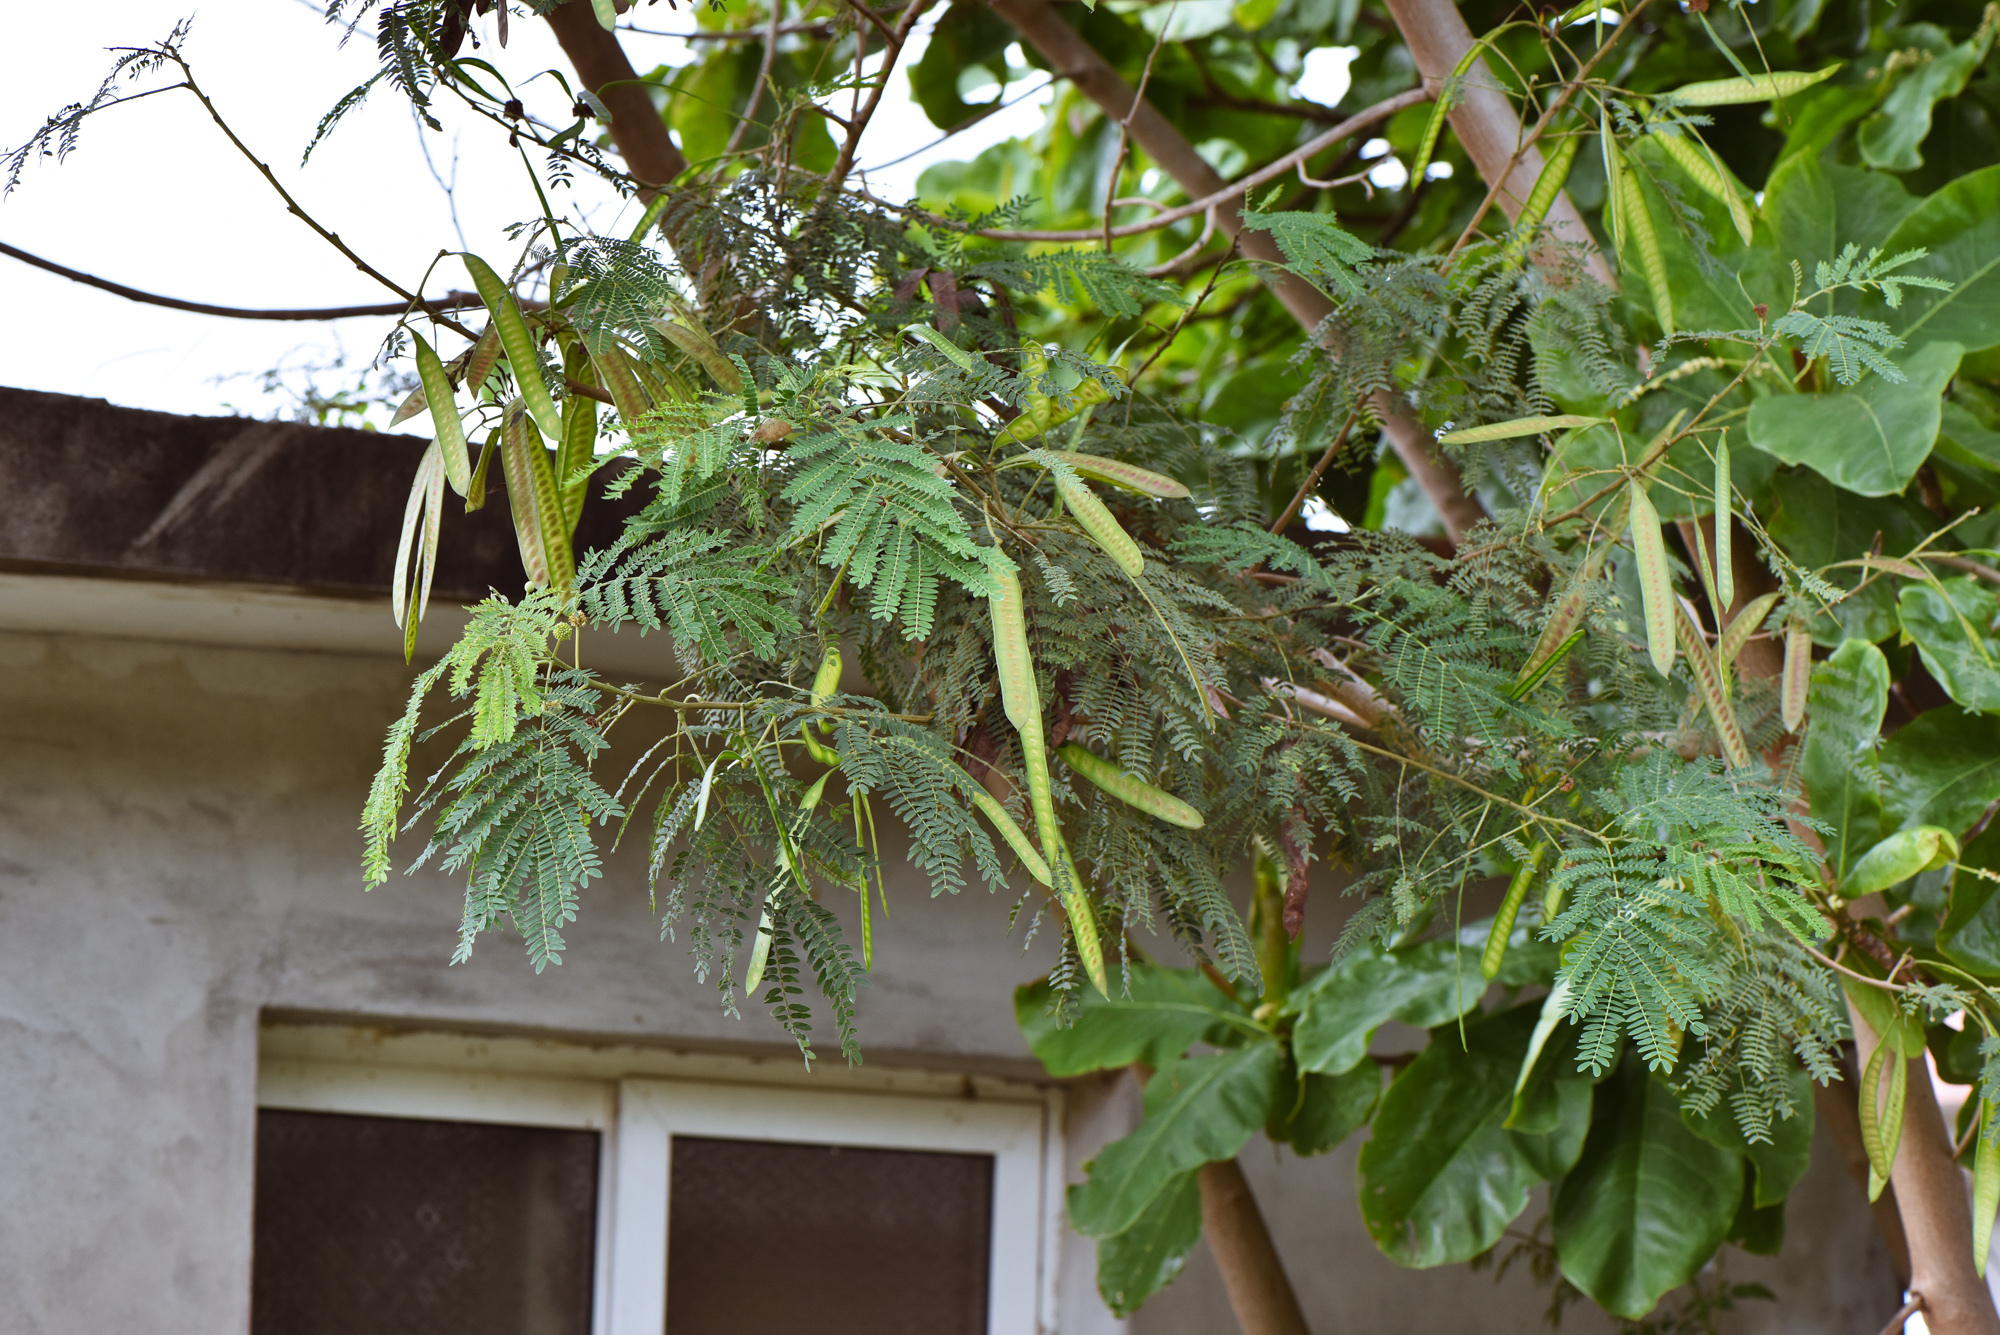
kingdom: Plantae
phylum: Tracheophyta
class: Magnoliopsida
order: Fabales
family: Fabaceae
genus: Leucaena
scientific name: Leucaena leucocephala
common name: White leadtree
